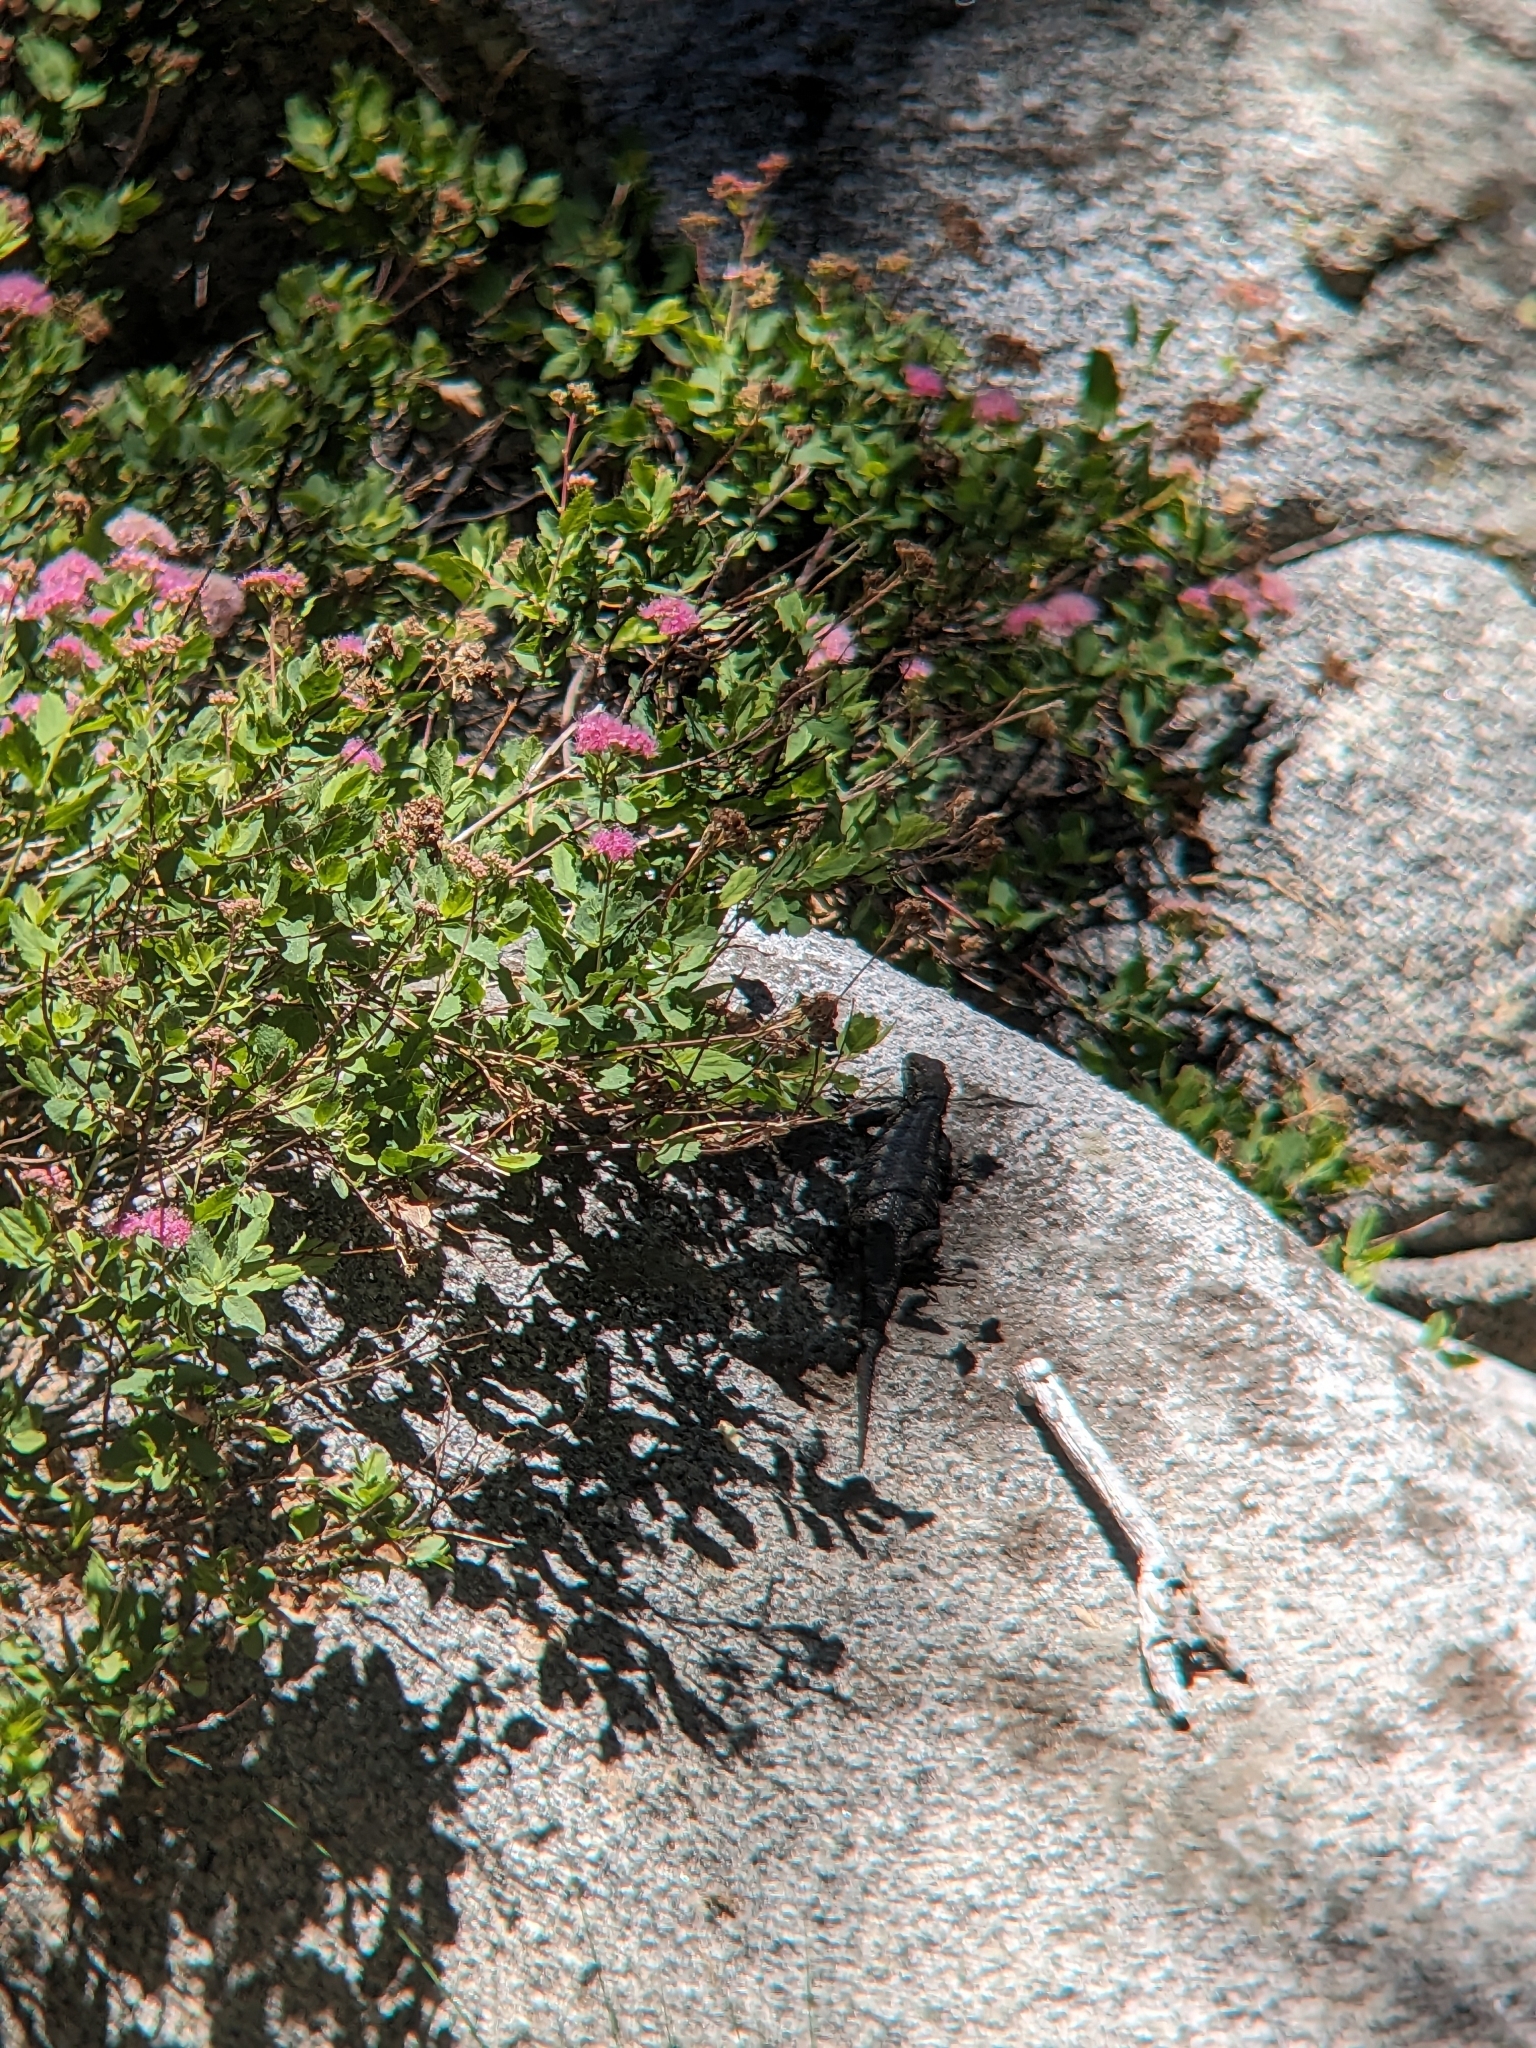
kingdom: Animalia
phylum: Chordata
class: Squamata
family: Phrynosomatidae
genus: Sceloporus
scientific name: Sceloporus occidentalis
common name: Western fence lizard
